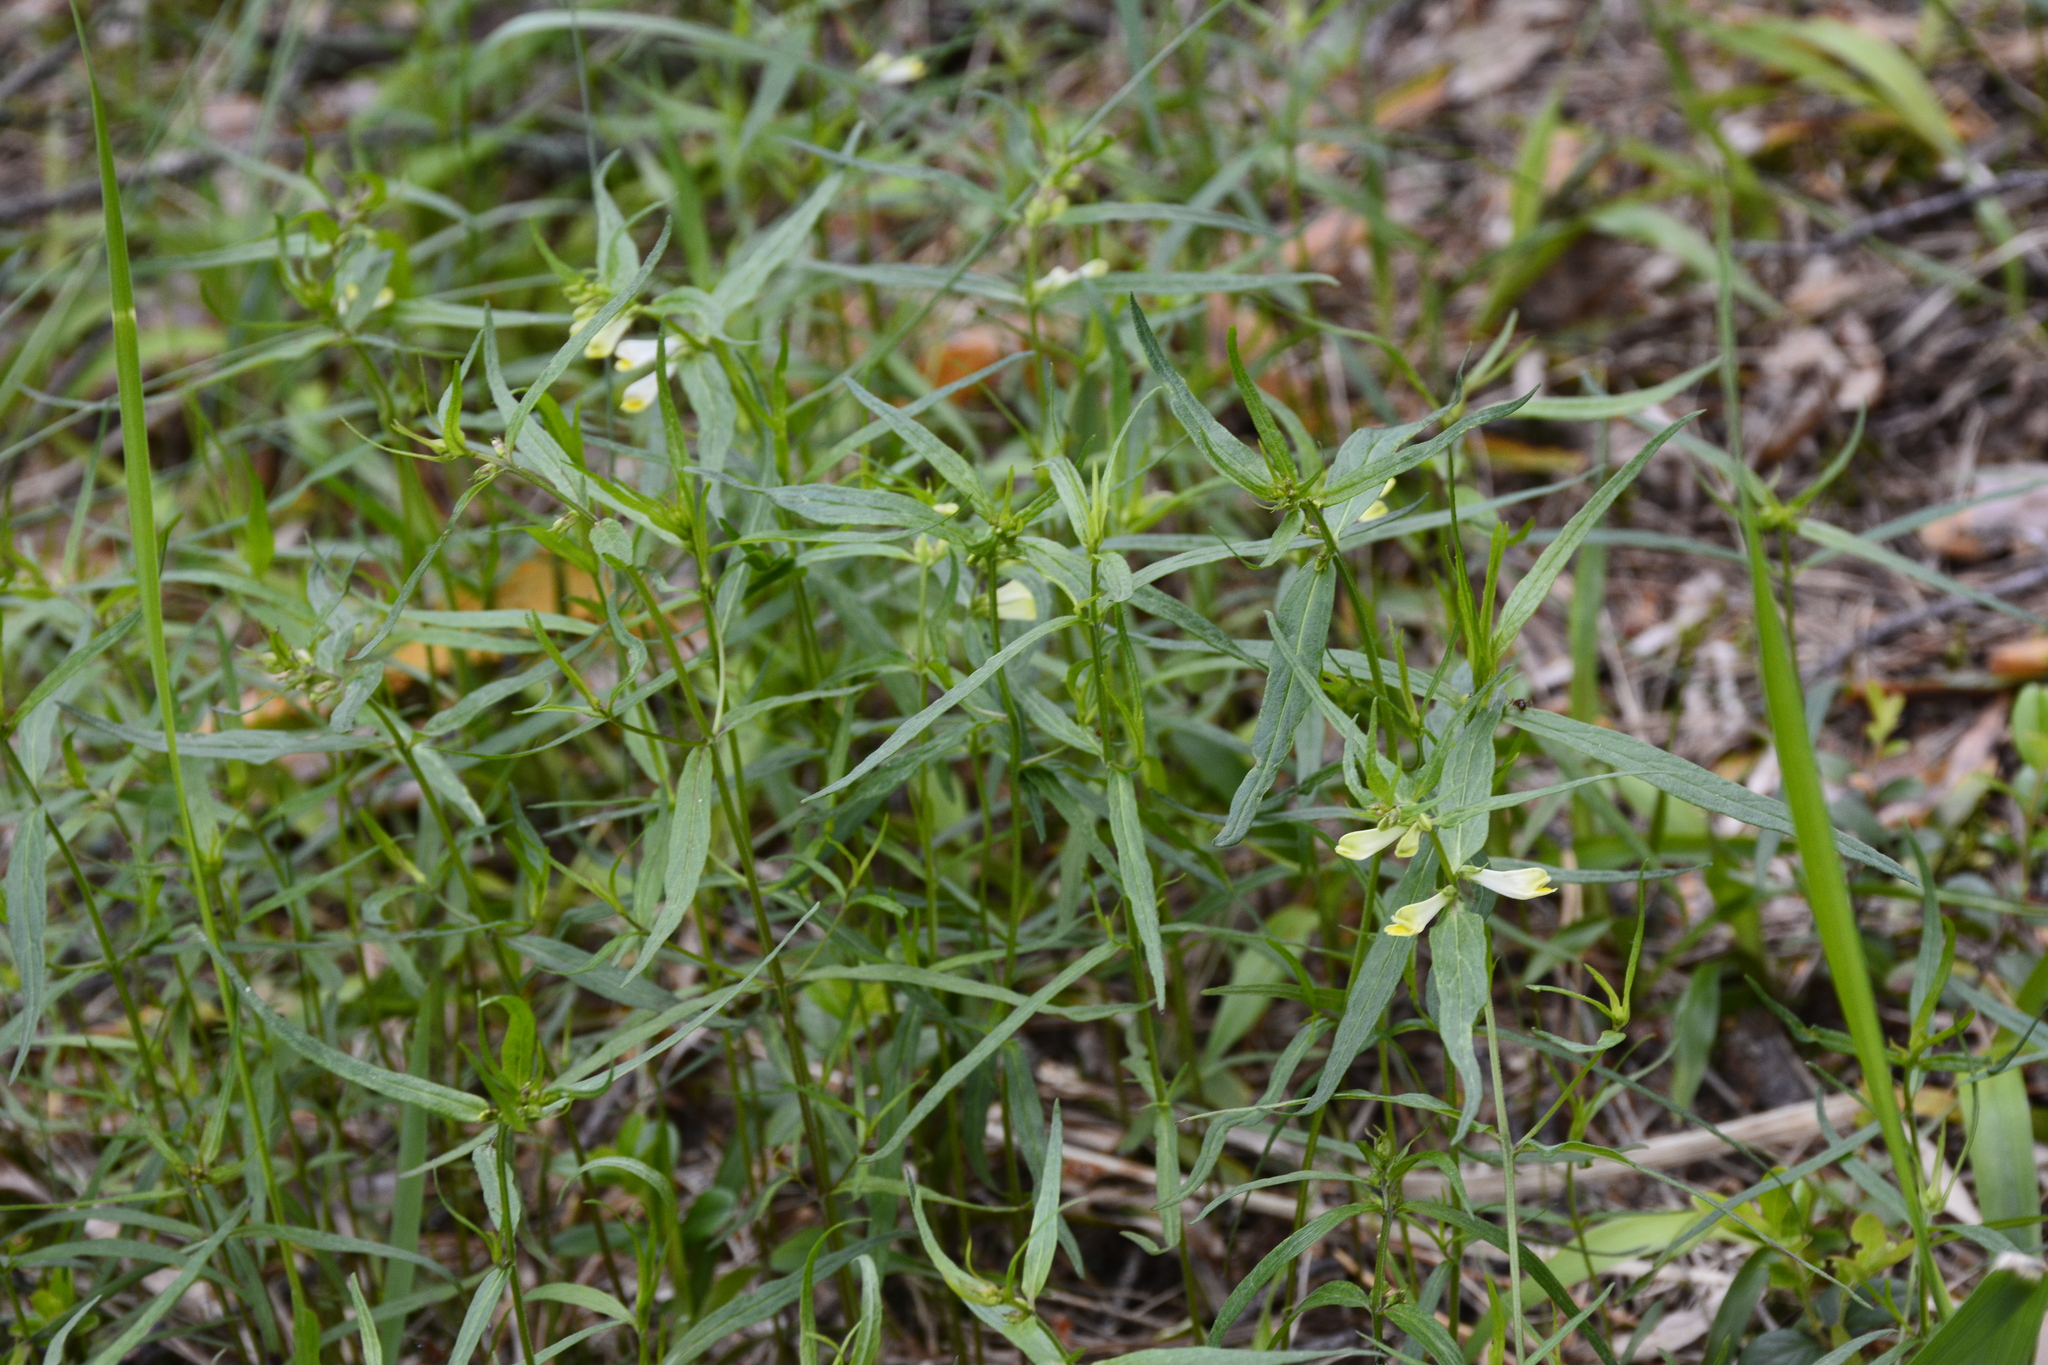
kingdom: Plantae
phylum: Tracheophyta
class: Magnoliopsida
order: Lamiales
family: Orobanchaceae
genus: Melampyrum
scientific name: Melampyrum pratense
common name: Common cow-wheat
